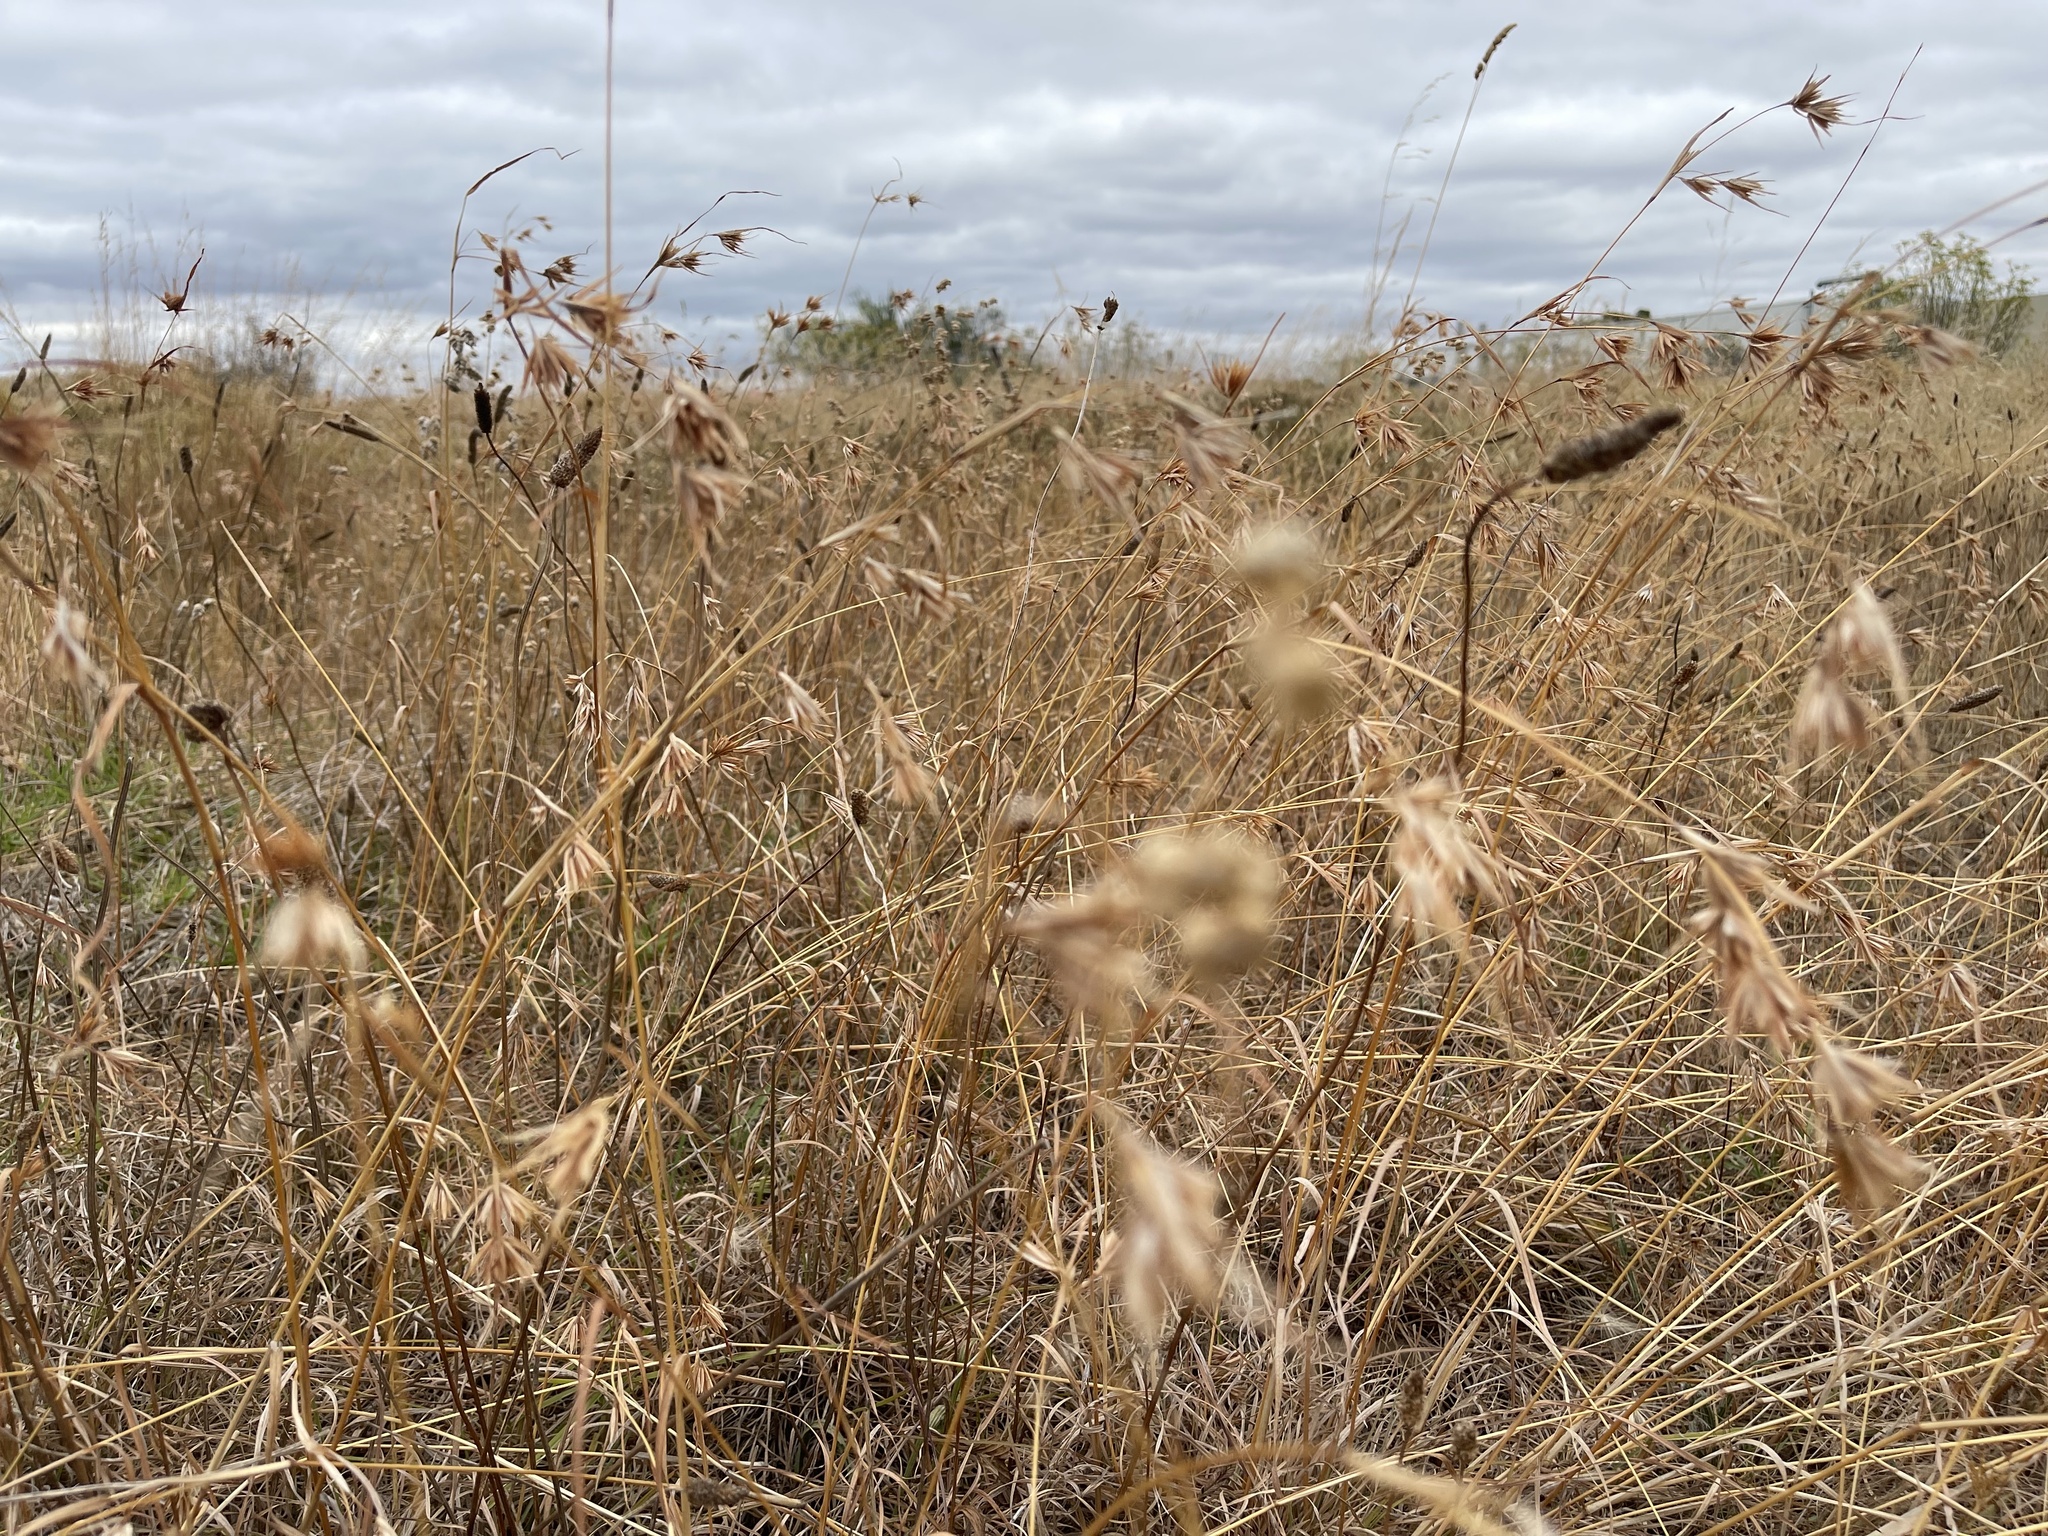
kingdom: Plantae
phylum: Tracheophyta
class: Liliopsida
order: Poales
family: Poaceae
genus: Themeda
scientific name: Themeda triandra
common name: Kangaroo grass
